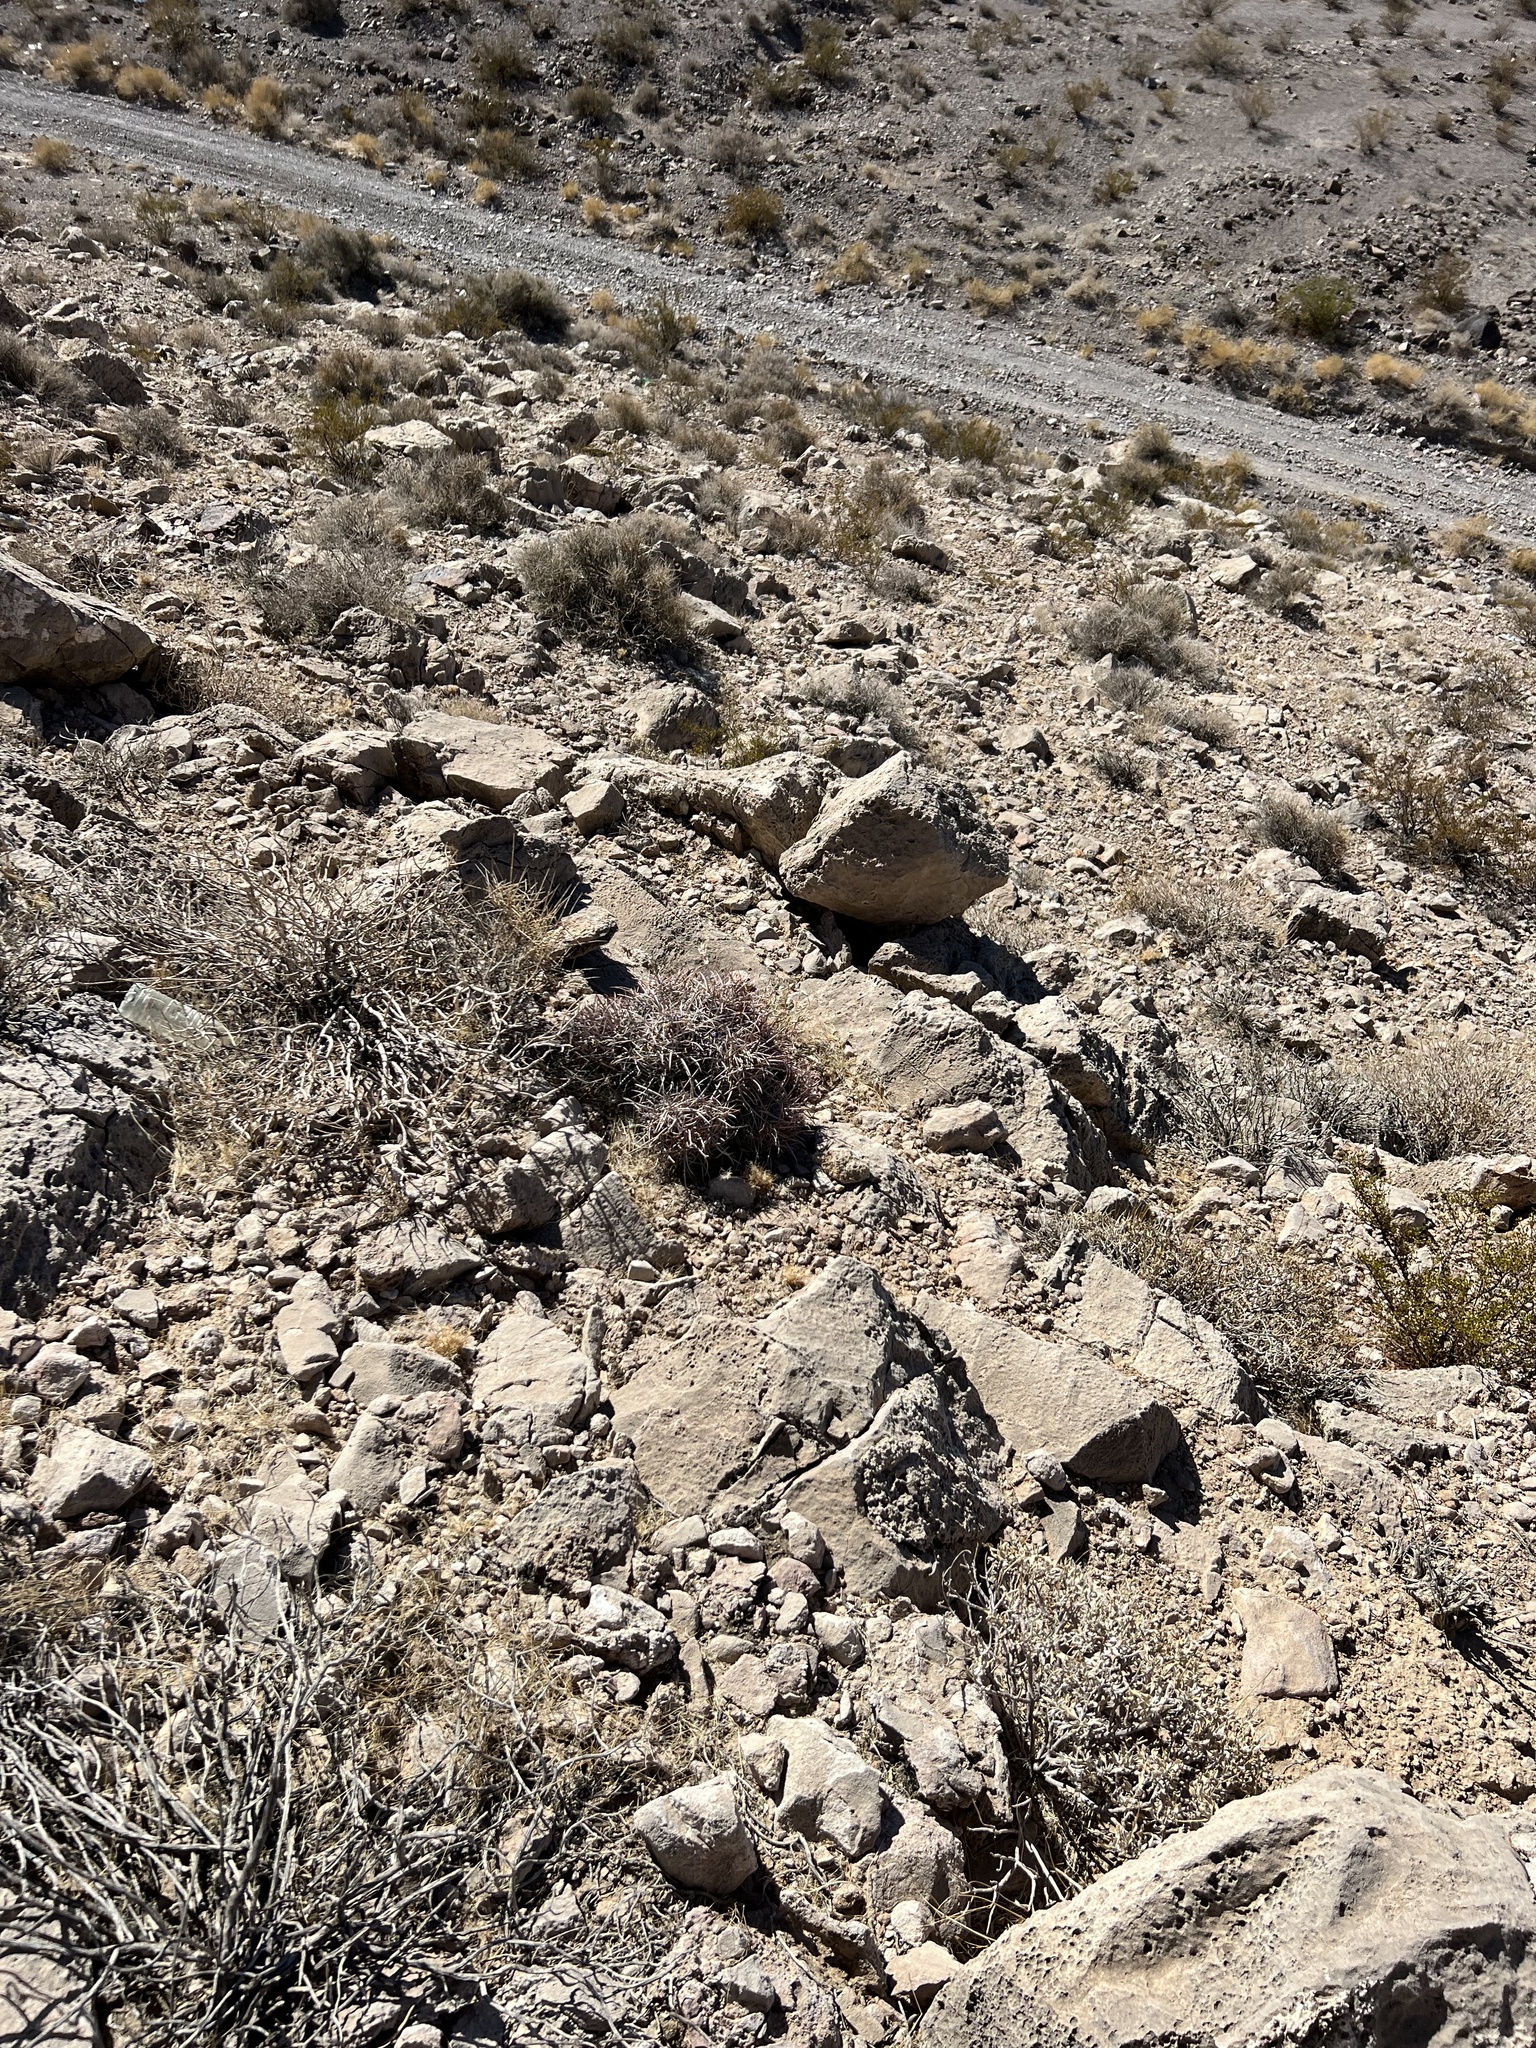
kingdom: Plantae
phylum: Tracheophyta
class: Magnoliopsida
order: Caryophyllales
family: Cactaceae
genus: Echinocactus
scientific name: Echinocactus polycephalus
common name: Cottontop cactus
